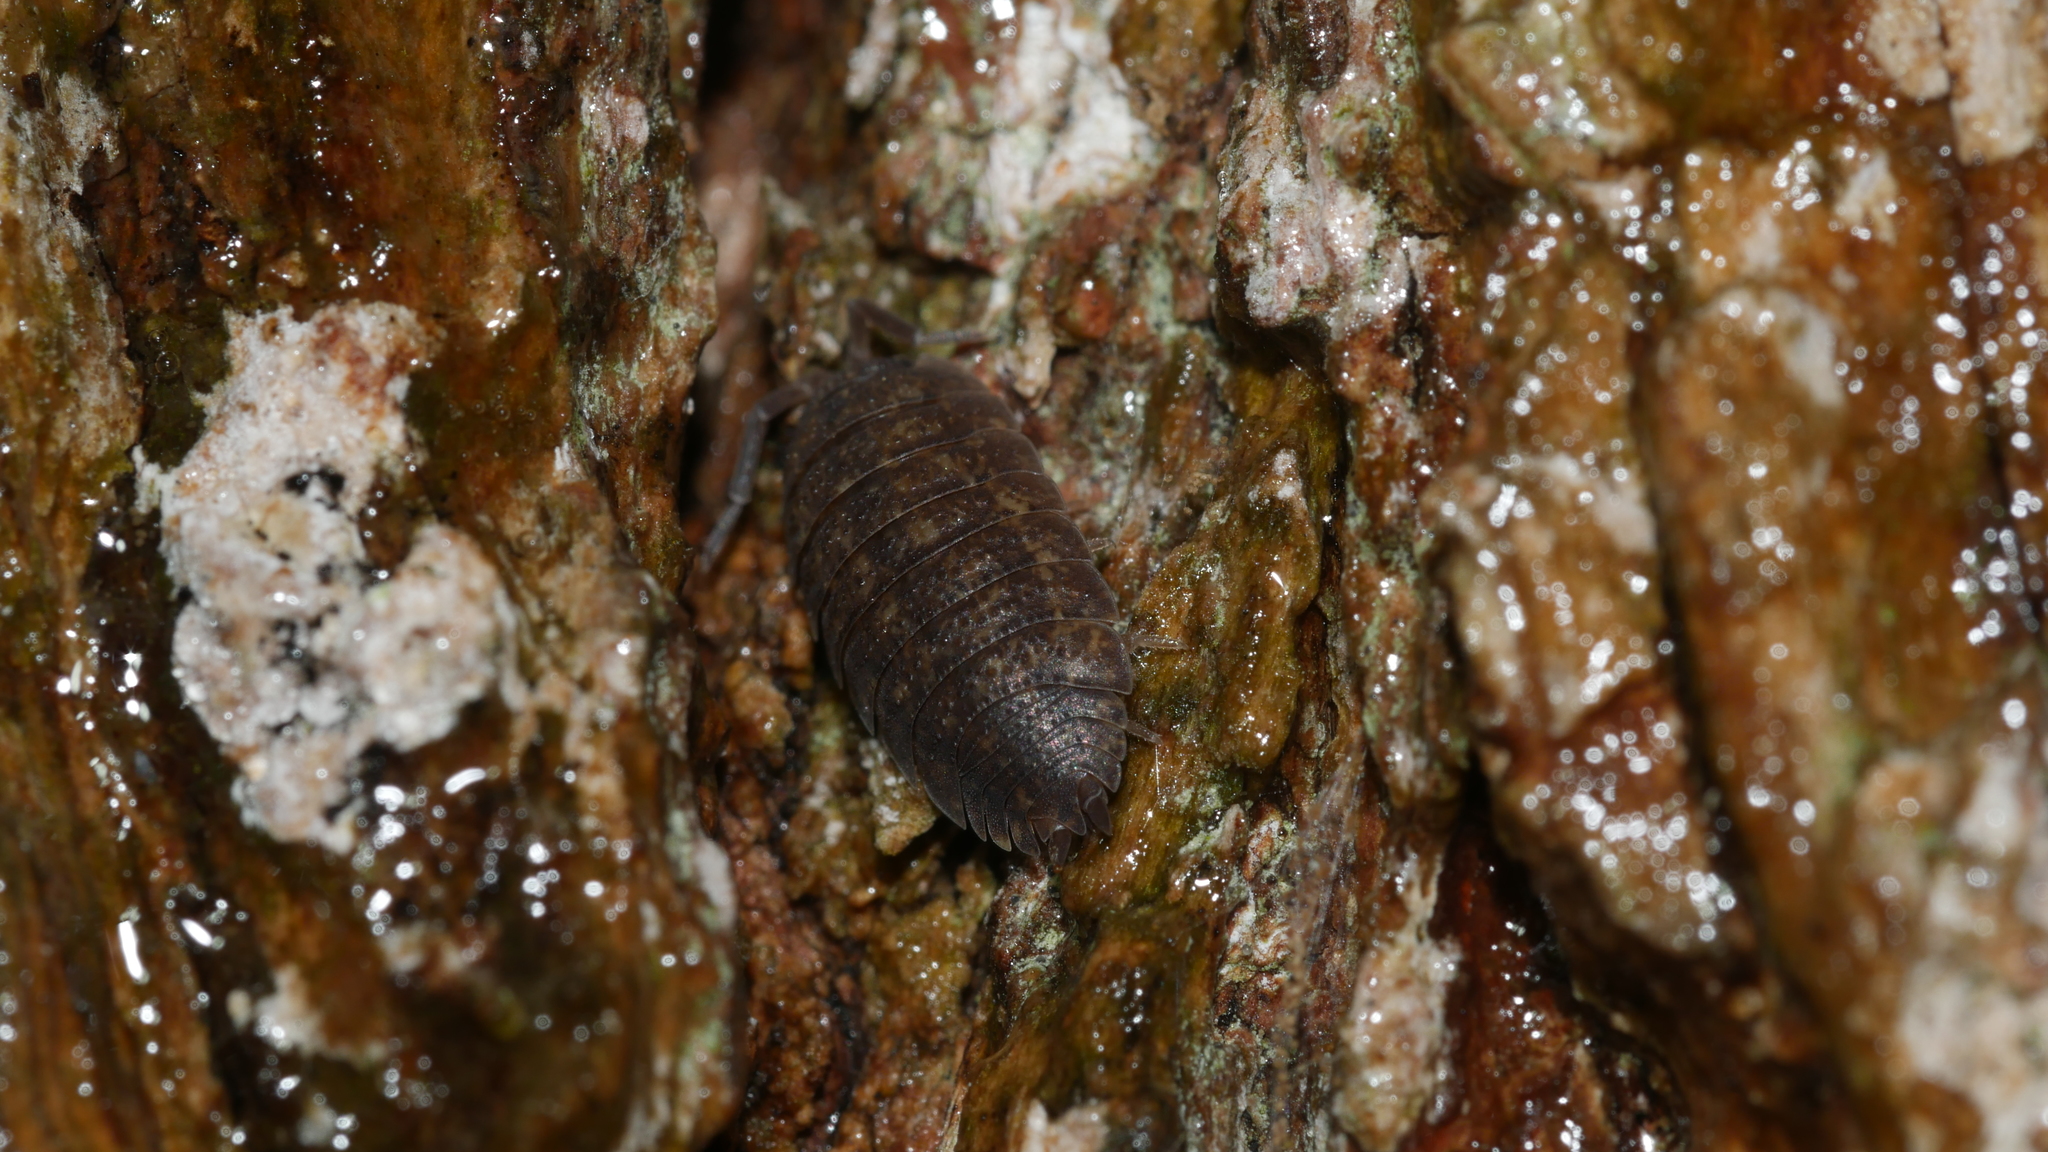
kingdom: Animalia
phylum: Arthropoda
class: Malacostraca
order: Isopoda
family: Porcellionidae
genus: Porcellio
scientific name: Porcellio scaber
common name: Common rough woodlouse
